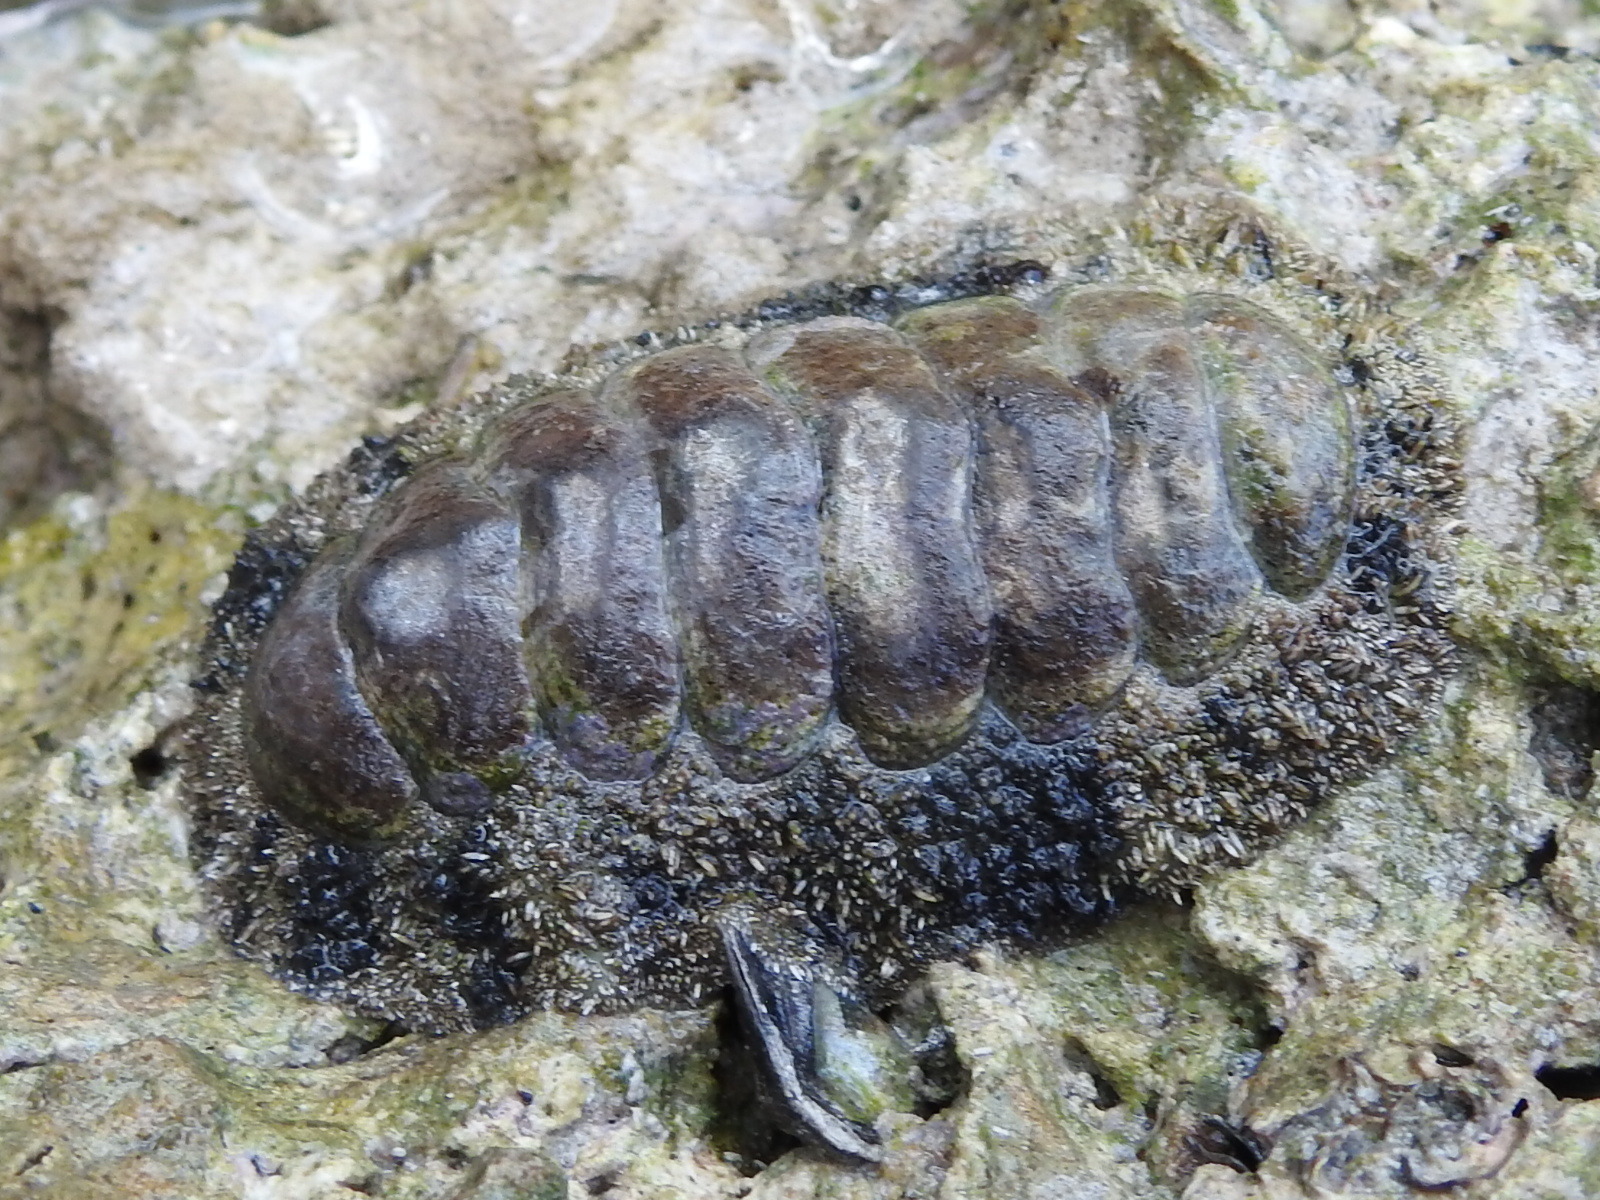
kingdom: Animalia
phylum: Mollusca
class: Polyplacophora
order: Chitonida
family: Chitonidae
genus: Acanthopleura
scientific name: Acanthopleura granulata
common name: West indian fuzzy chiton
